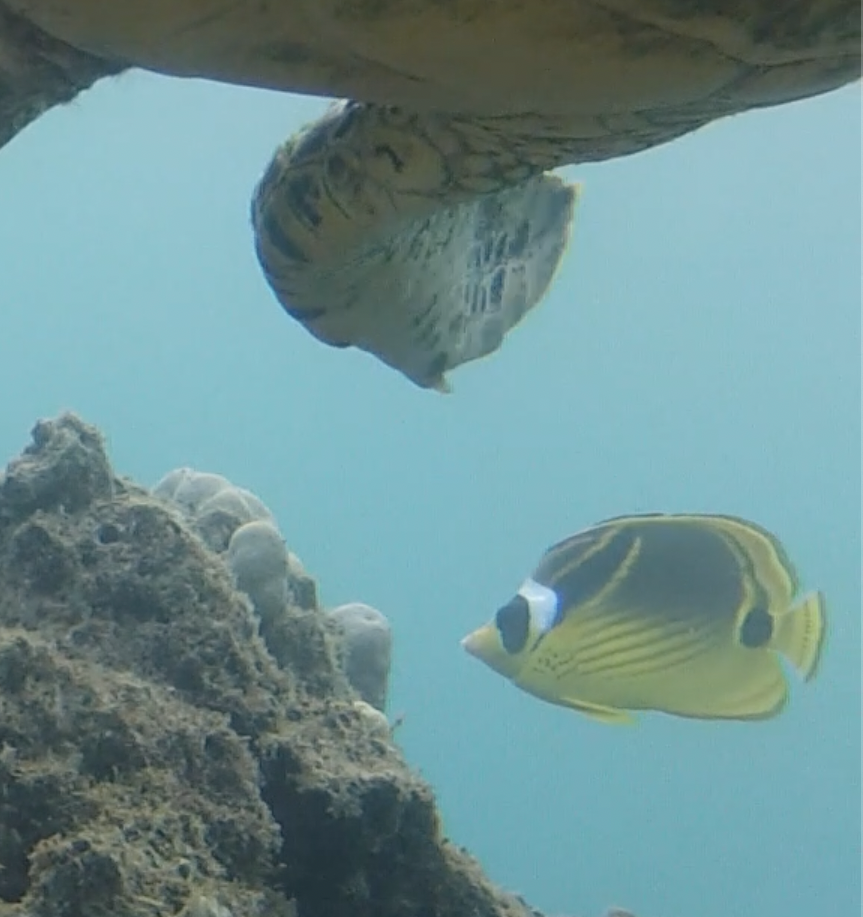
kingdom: Animalia
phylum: Chordata
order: Perciformes
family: Chaetodontidae
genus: Chaetodon
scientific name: Chaetodon lunula
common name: Raccoon butterflyfish
